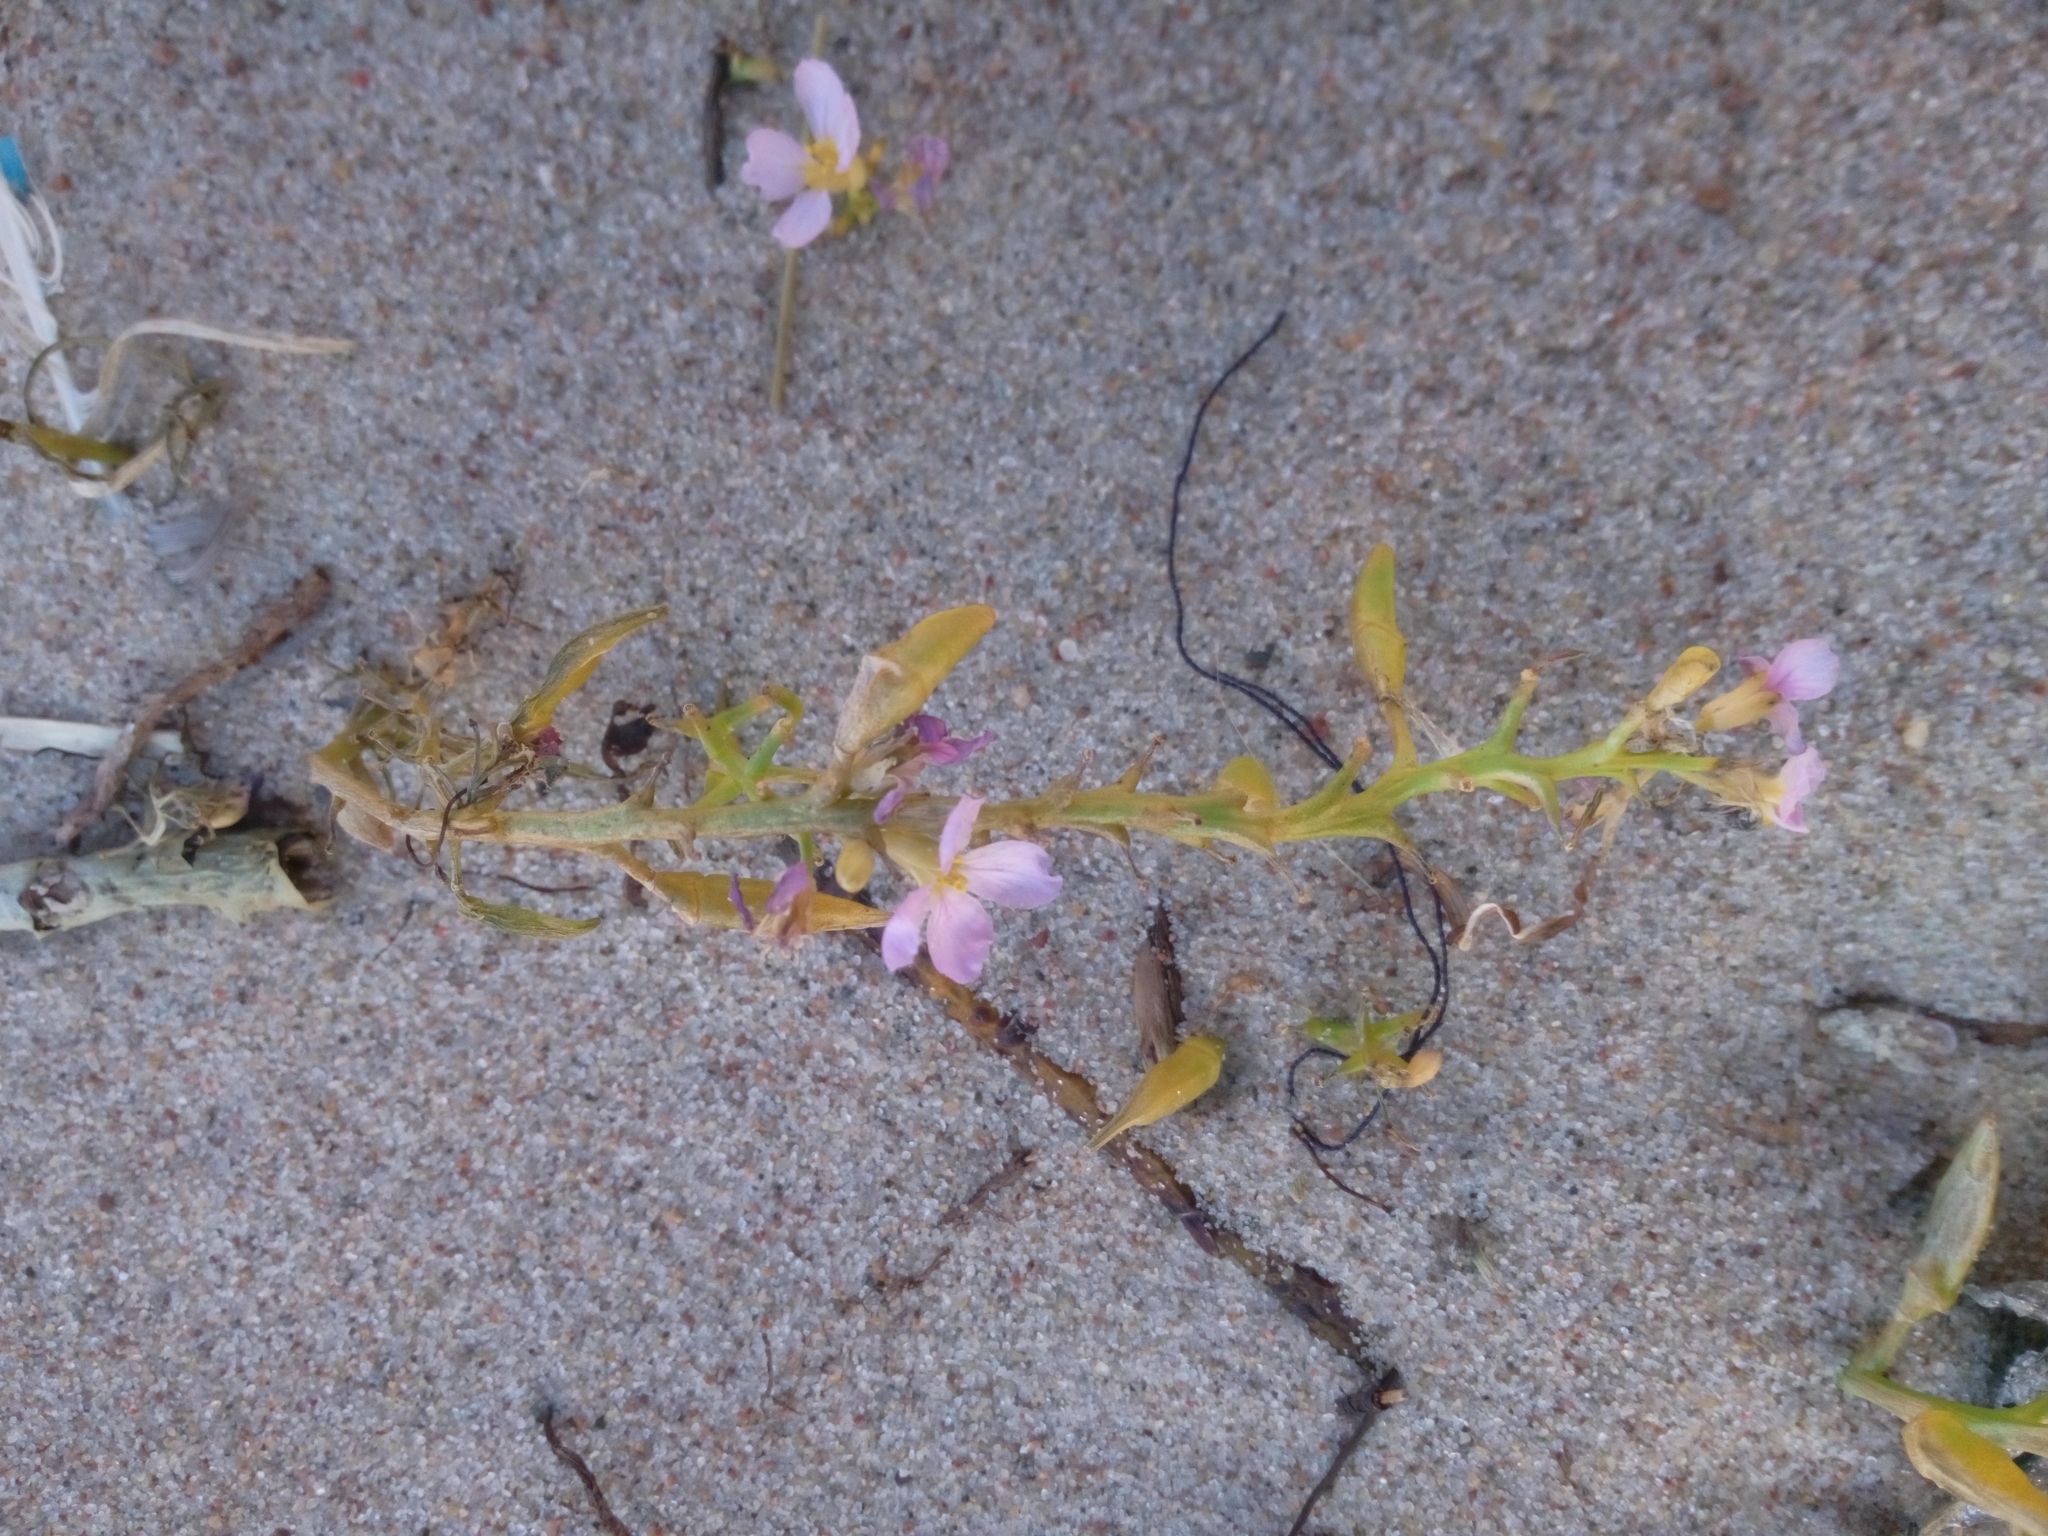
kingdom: Plantae
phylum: Tracheophyta
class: Magnoliopsida
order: Brassicales
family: Brassicaceae
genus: Cakile
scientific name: Cakile maritima
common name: Sea rocket
